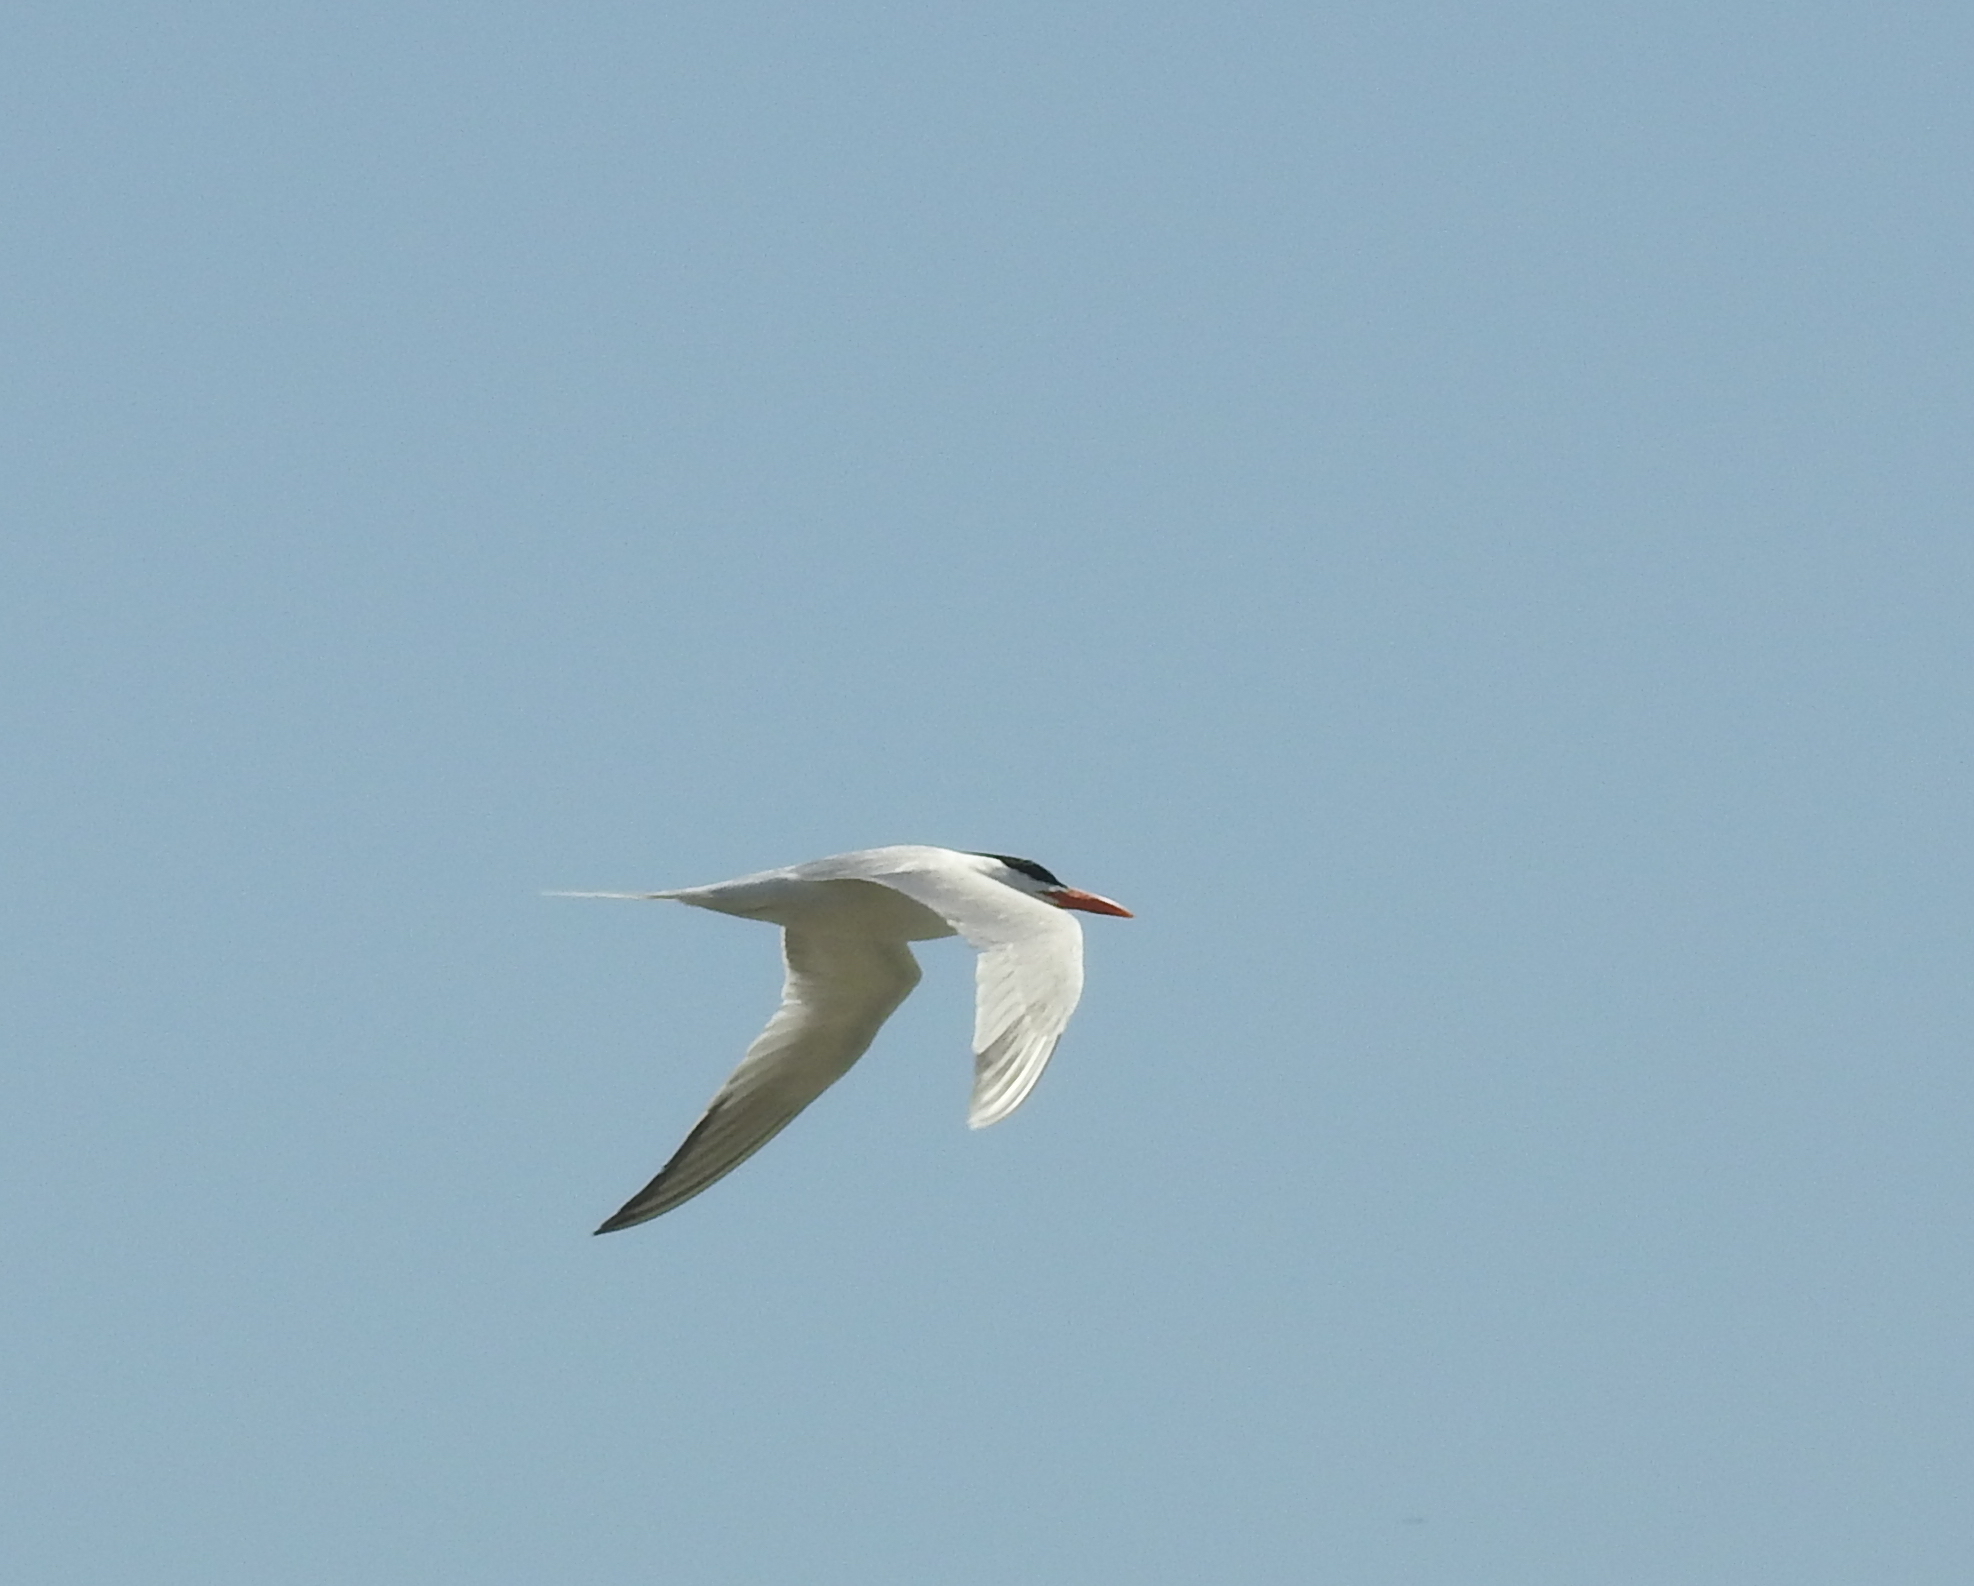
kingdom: Animalia
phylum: Chordata
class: Aves
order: Charadriiformes
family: Laridae
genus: Thalasseus
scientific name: Thalasseus maximus
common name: Royal tern
